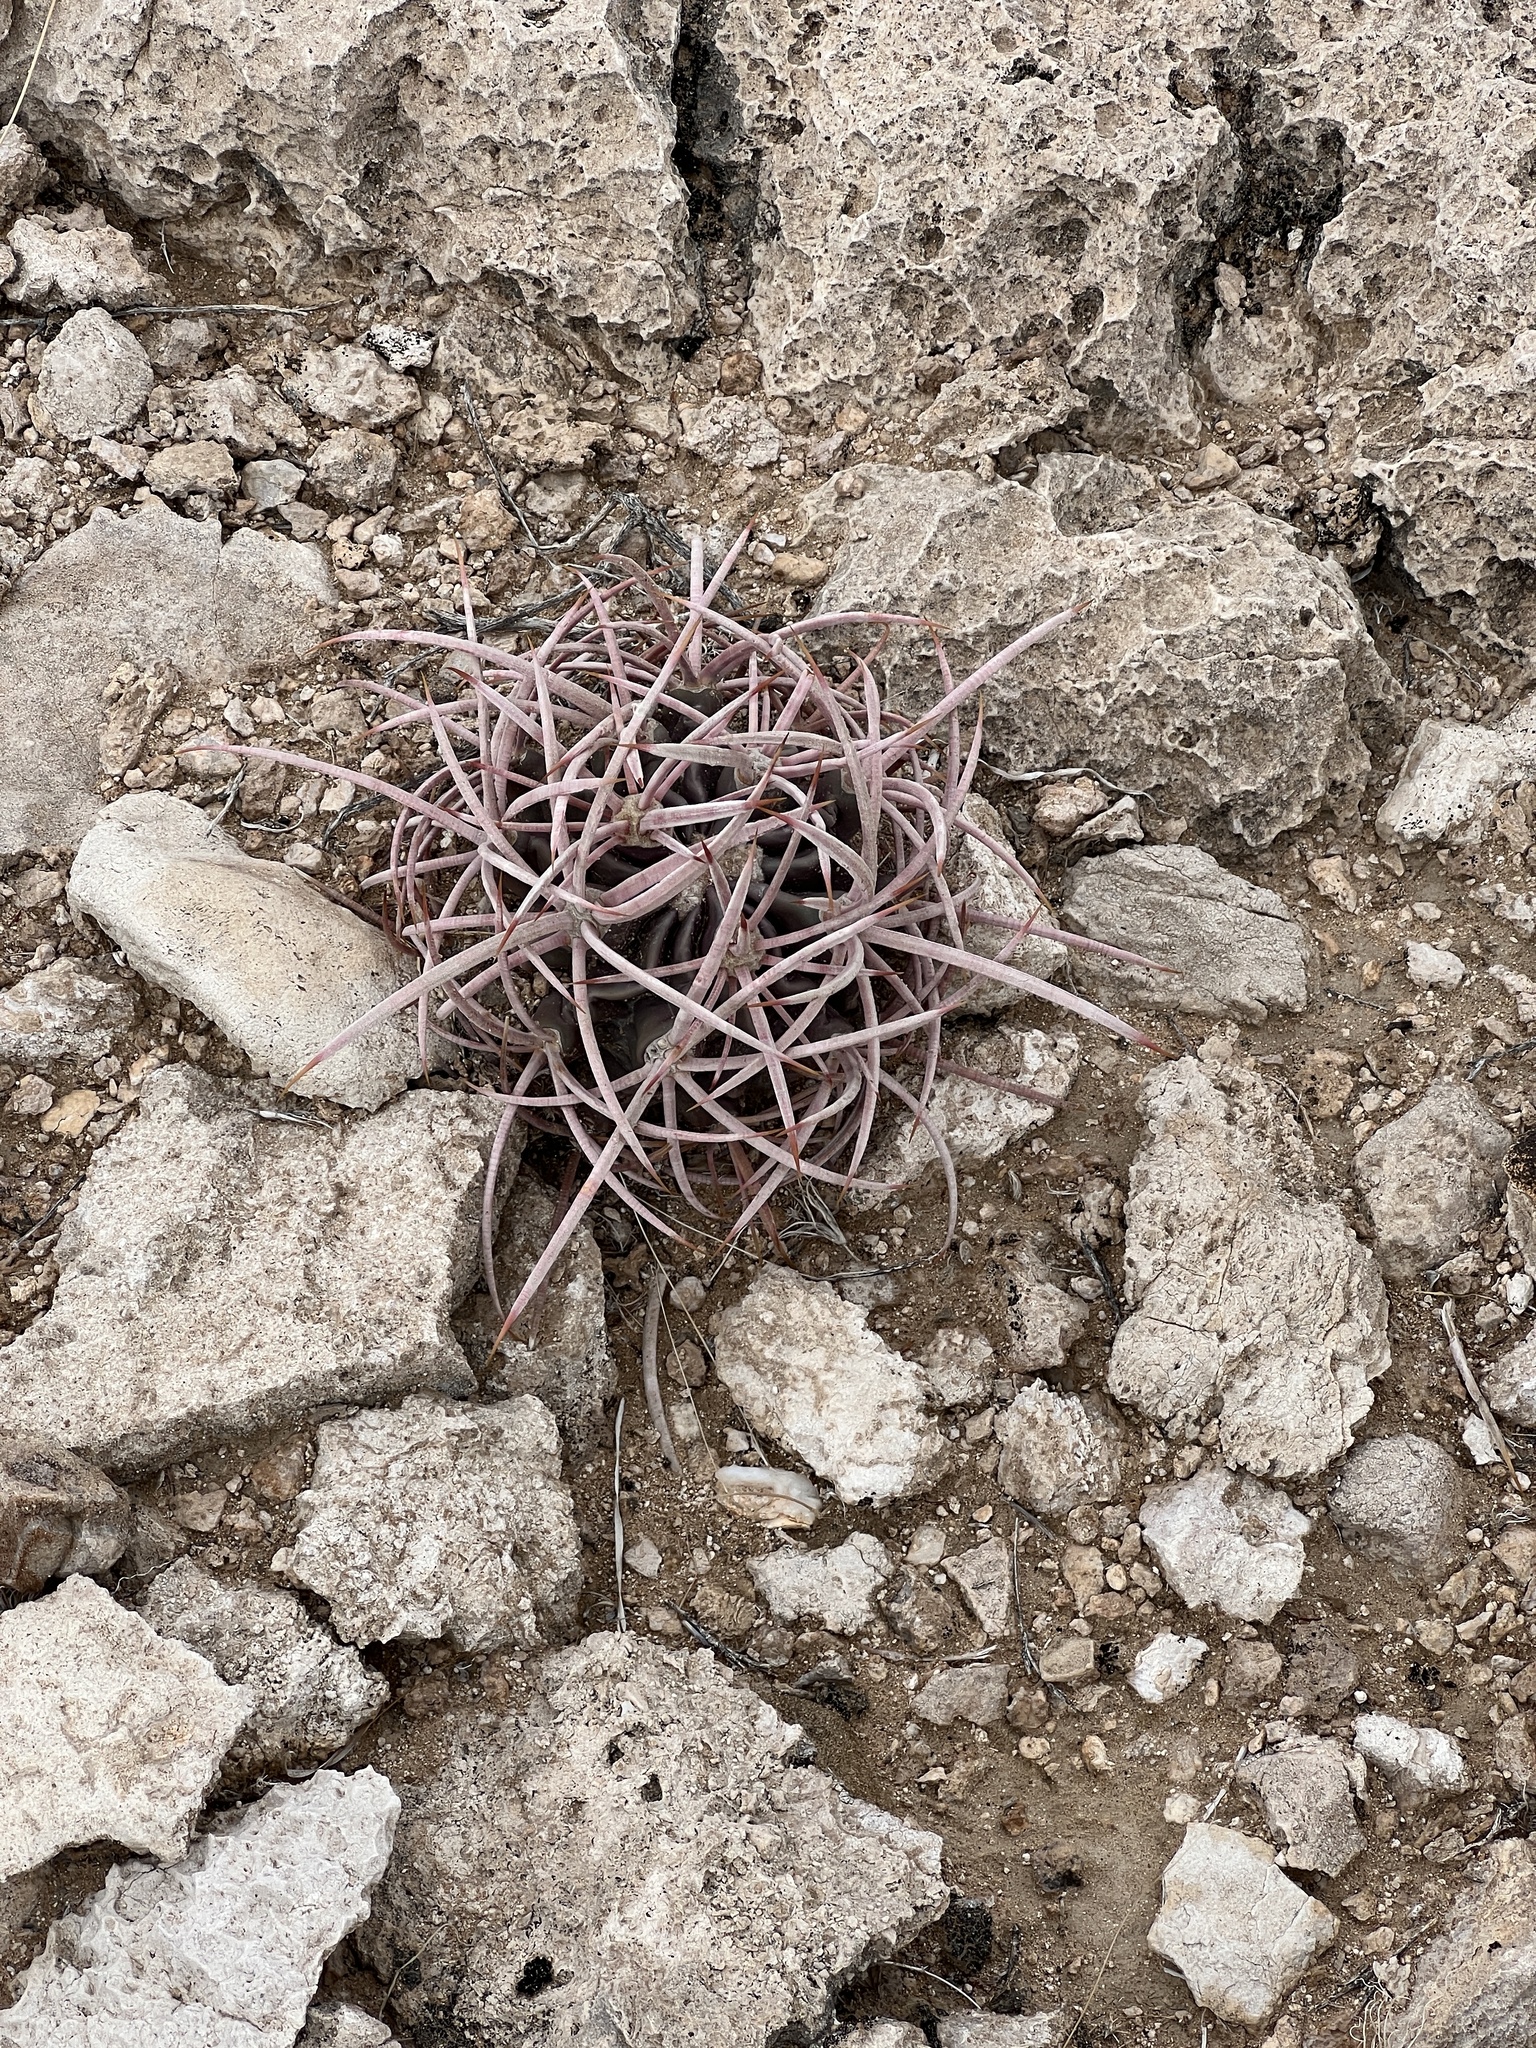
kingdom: Plantae
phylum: Tracheophyta
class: Magnoliopsida
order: Caryophyllales
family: Cactaceae
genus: Echinocactus
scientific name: Echinocactus polycephalus
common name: Cottontop cactus
